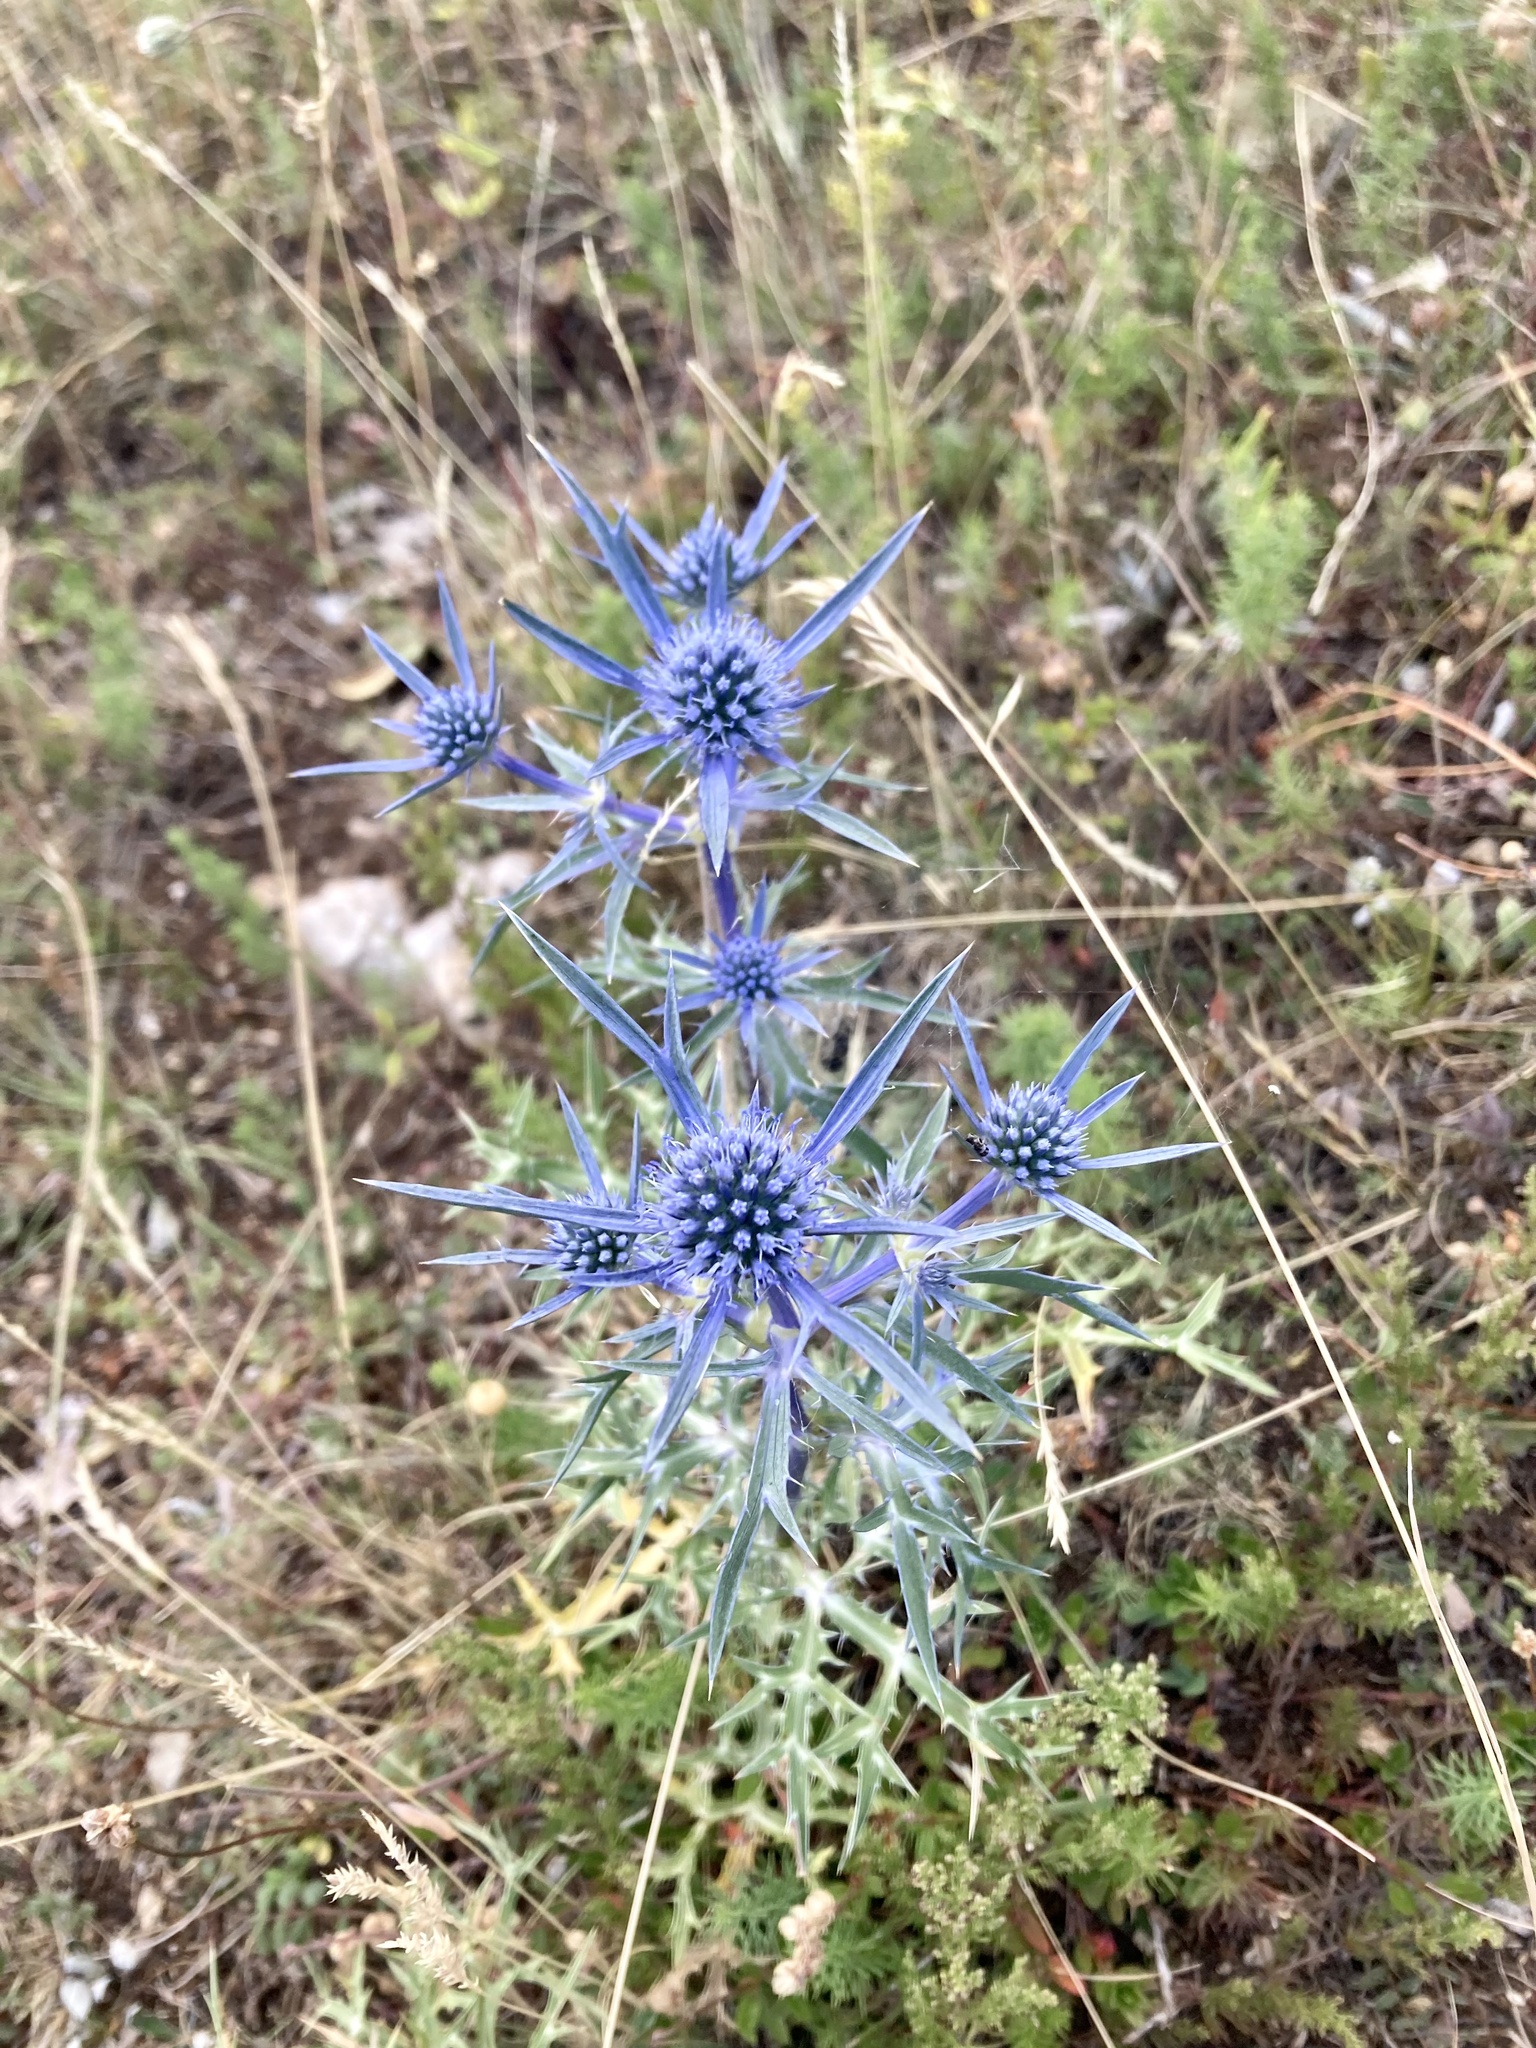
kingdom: Plantae
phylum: Tracheophyta
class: Magnoliopsida
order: Apiales
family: Apiaceae
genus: Eryngium
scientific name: Eryngium amethystinum
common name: Amethyst eryngo
